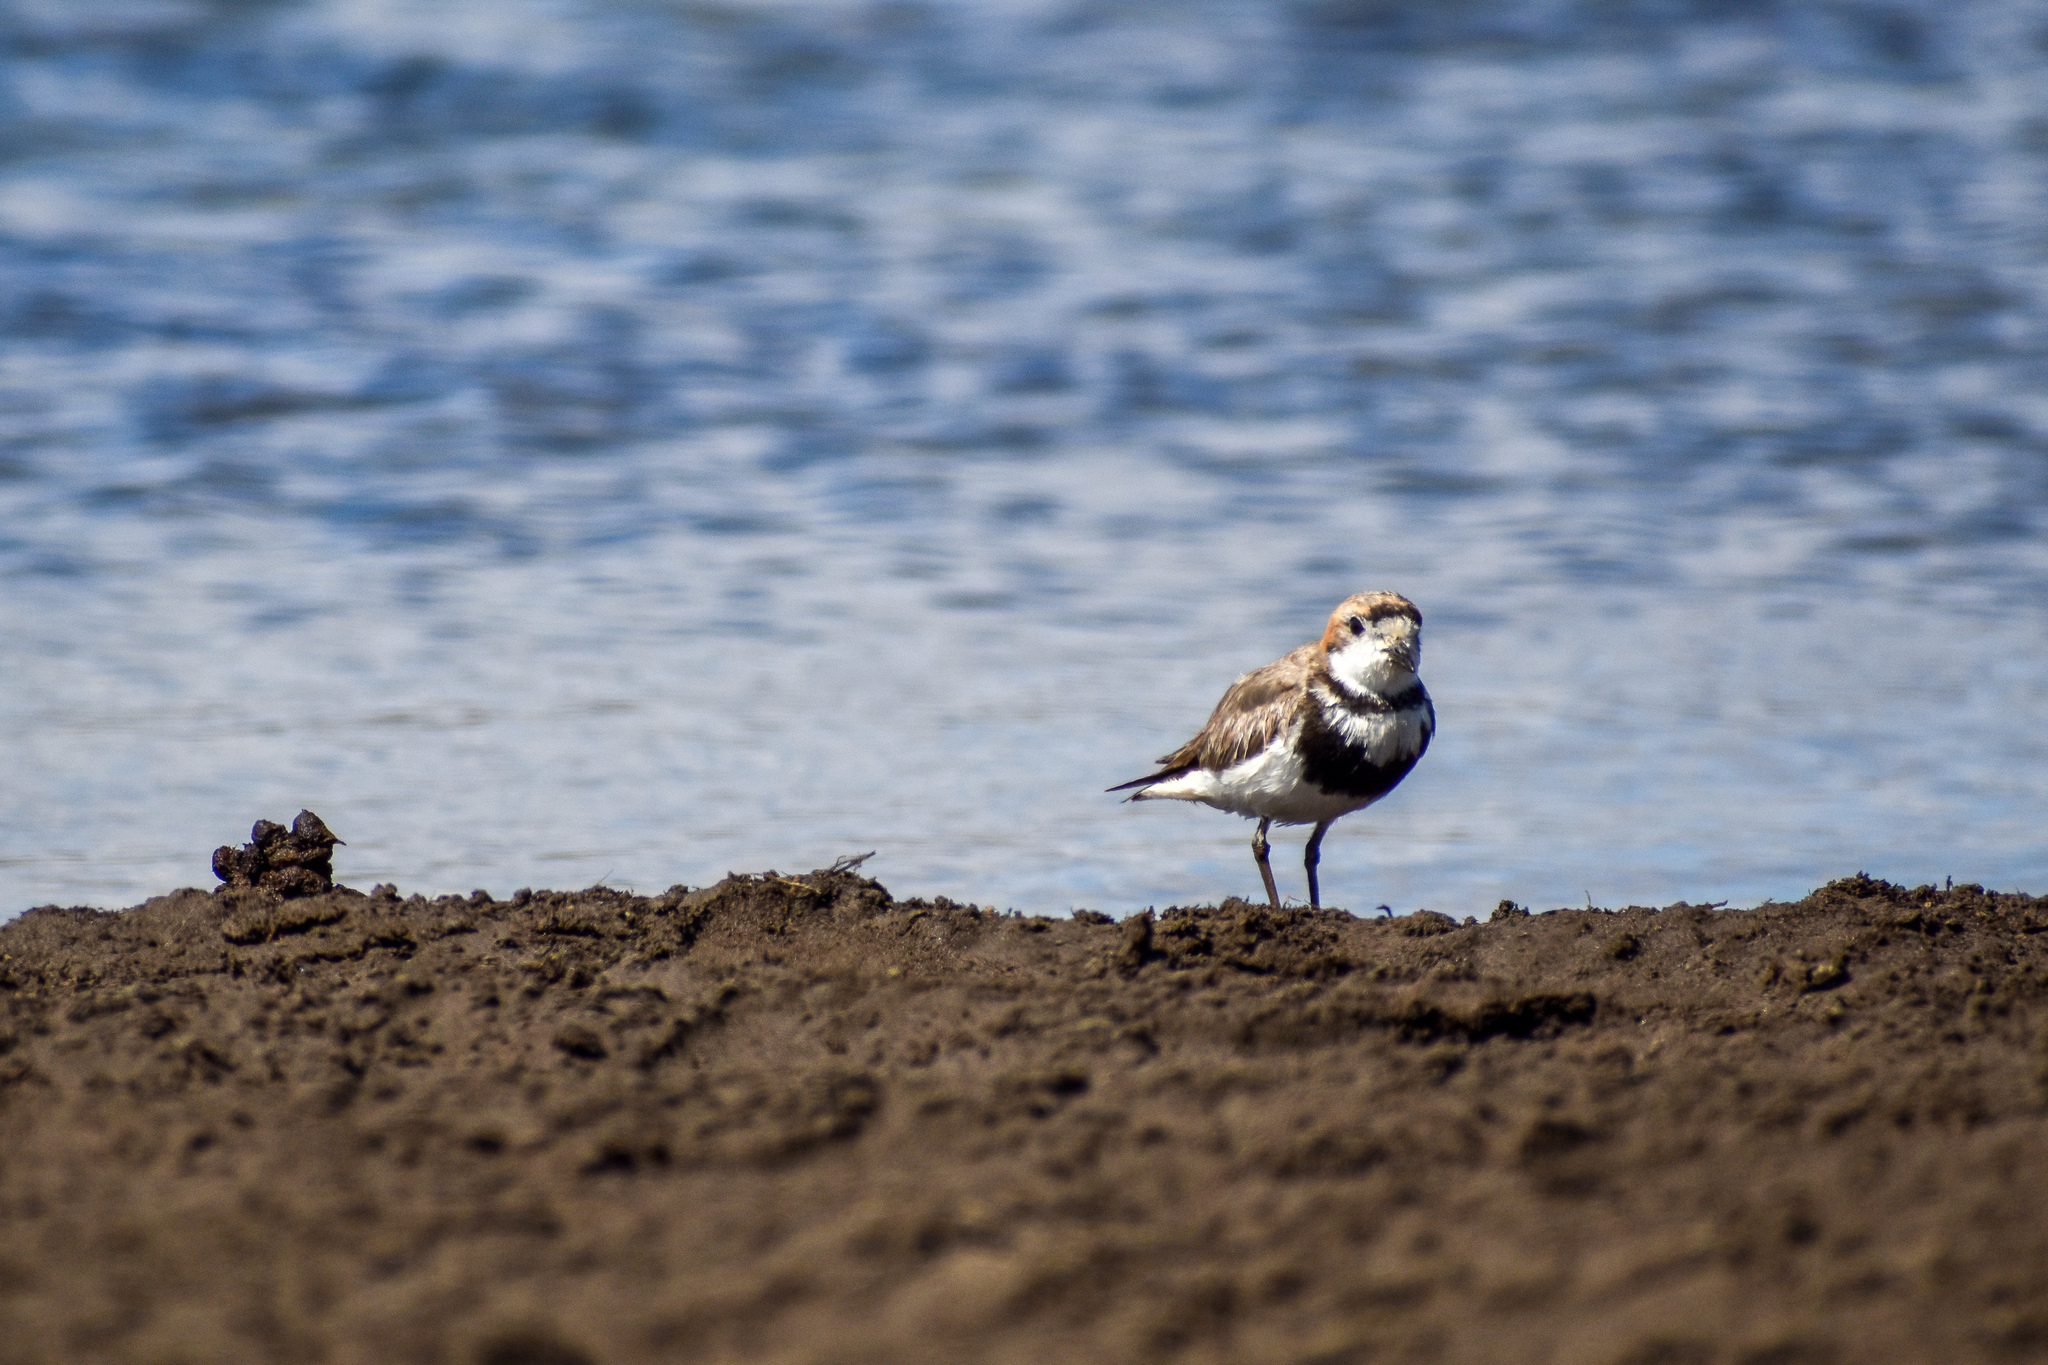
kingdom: Animalia
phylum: Chordata
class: Aves
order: Charadriiformes
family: Charadriidae
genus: Anarhynchus
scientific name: Anarhynchus
